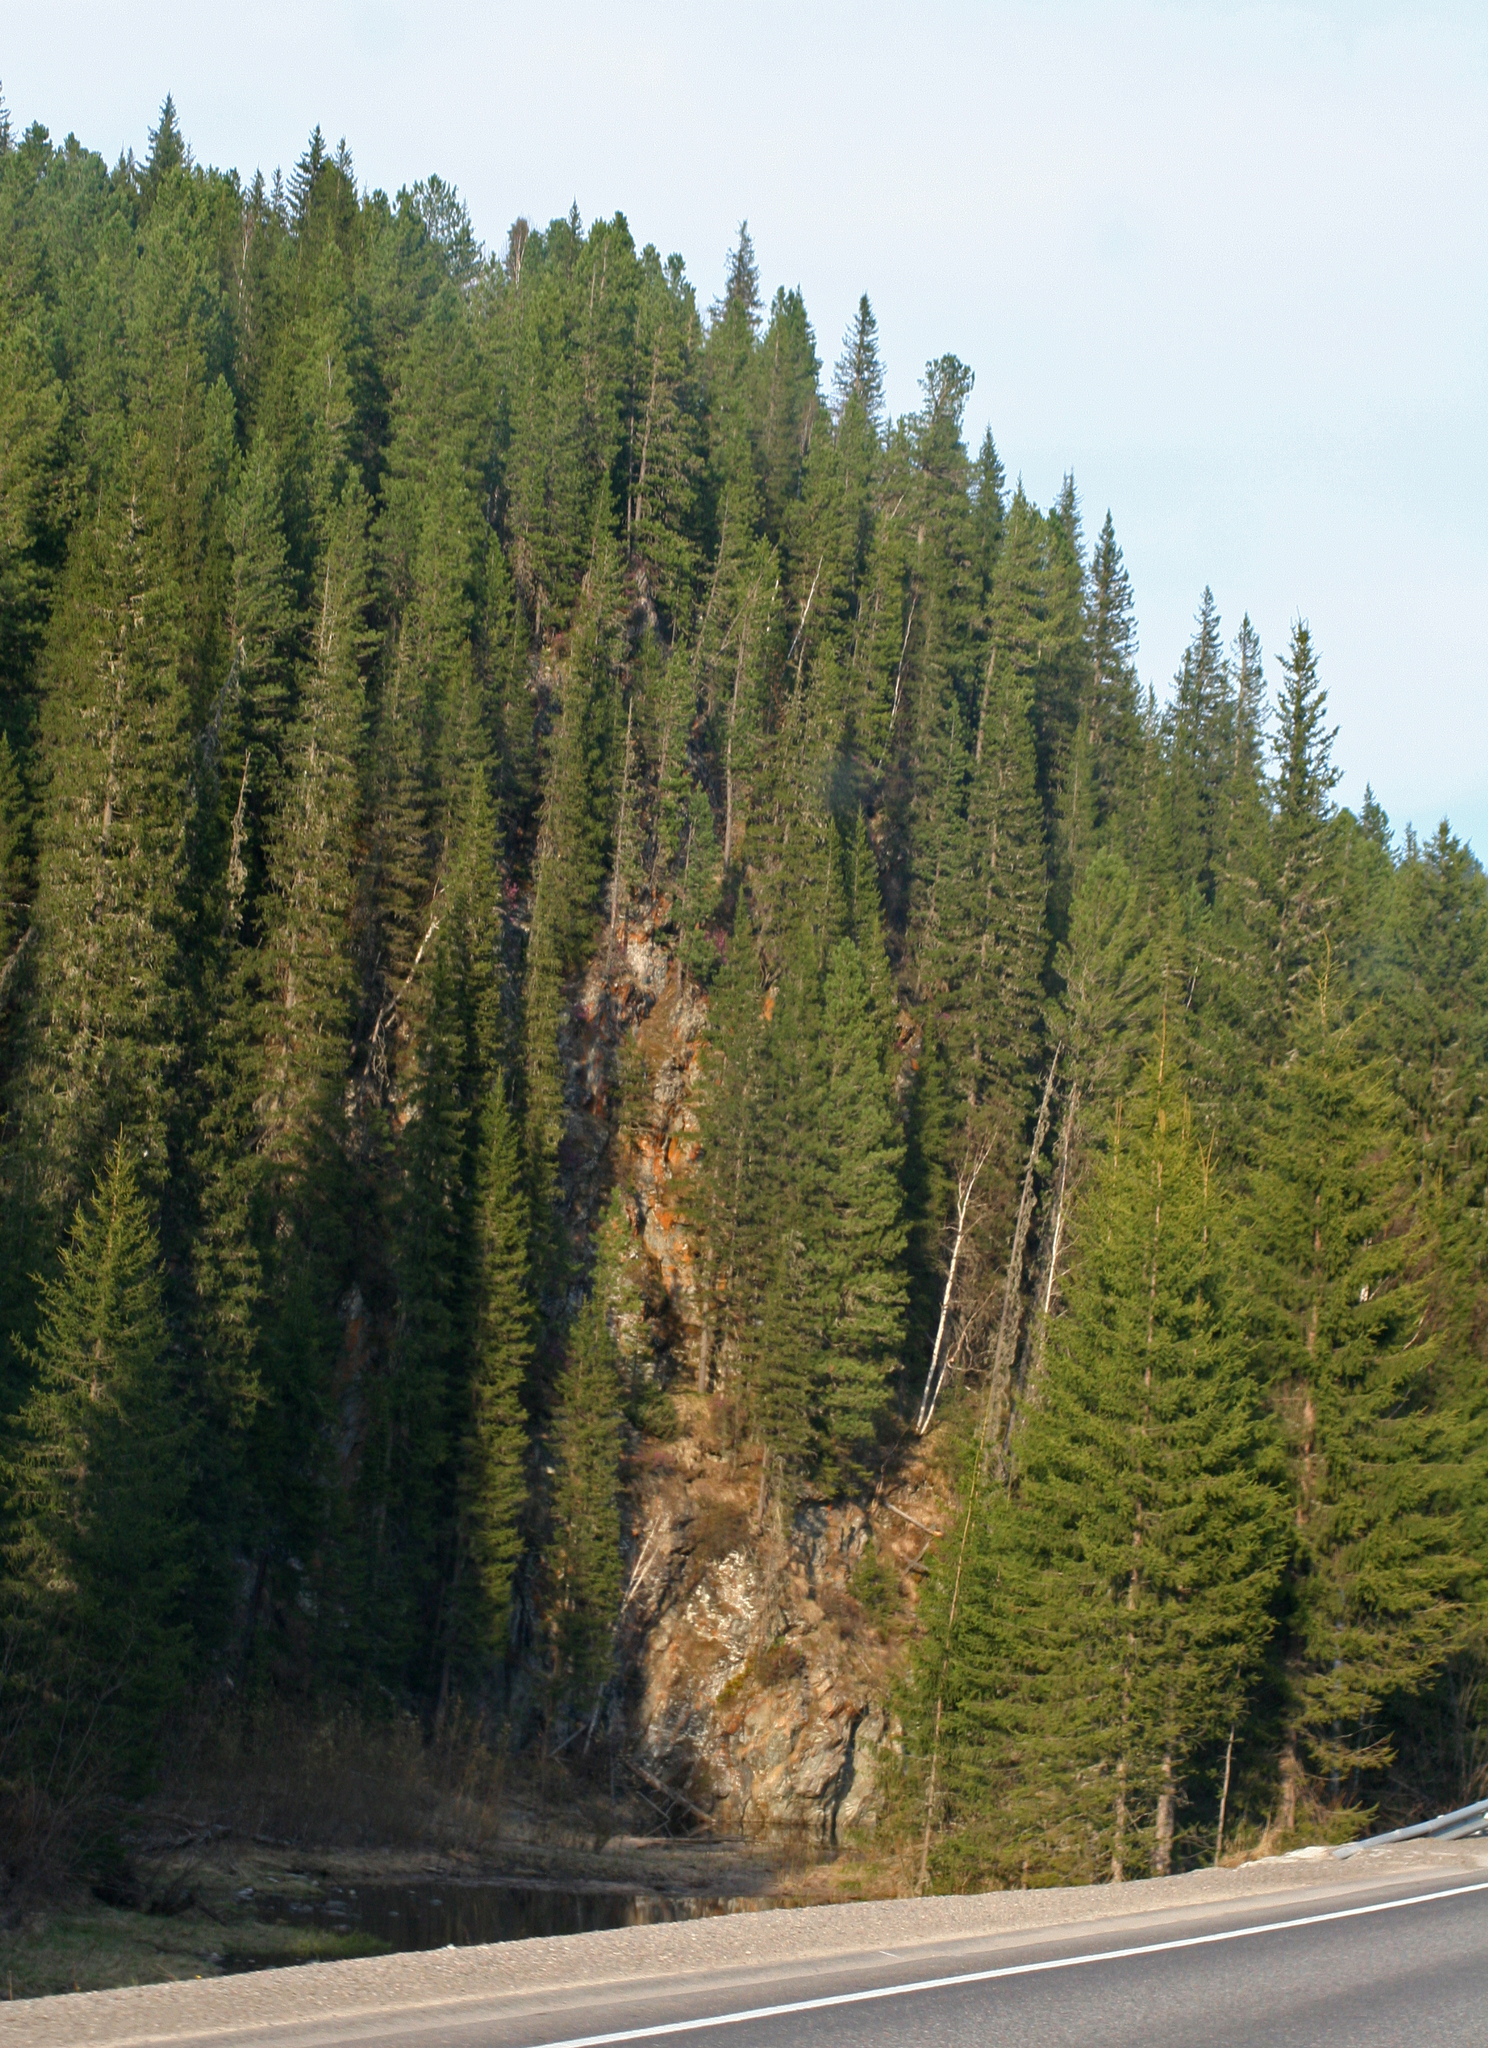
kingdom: Plantae
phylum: Tracheophyta
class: Pinopsida
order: Pinales
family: Pinaceae
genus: Abies
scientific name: Abies sibirica
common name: Siberian fir
